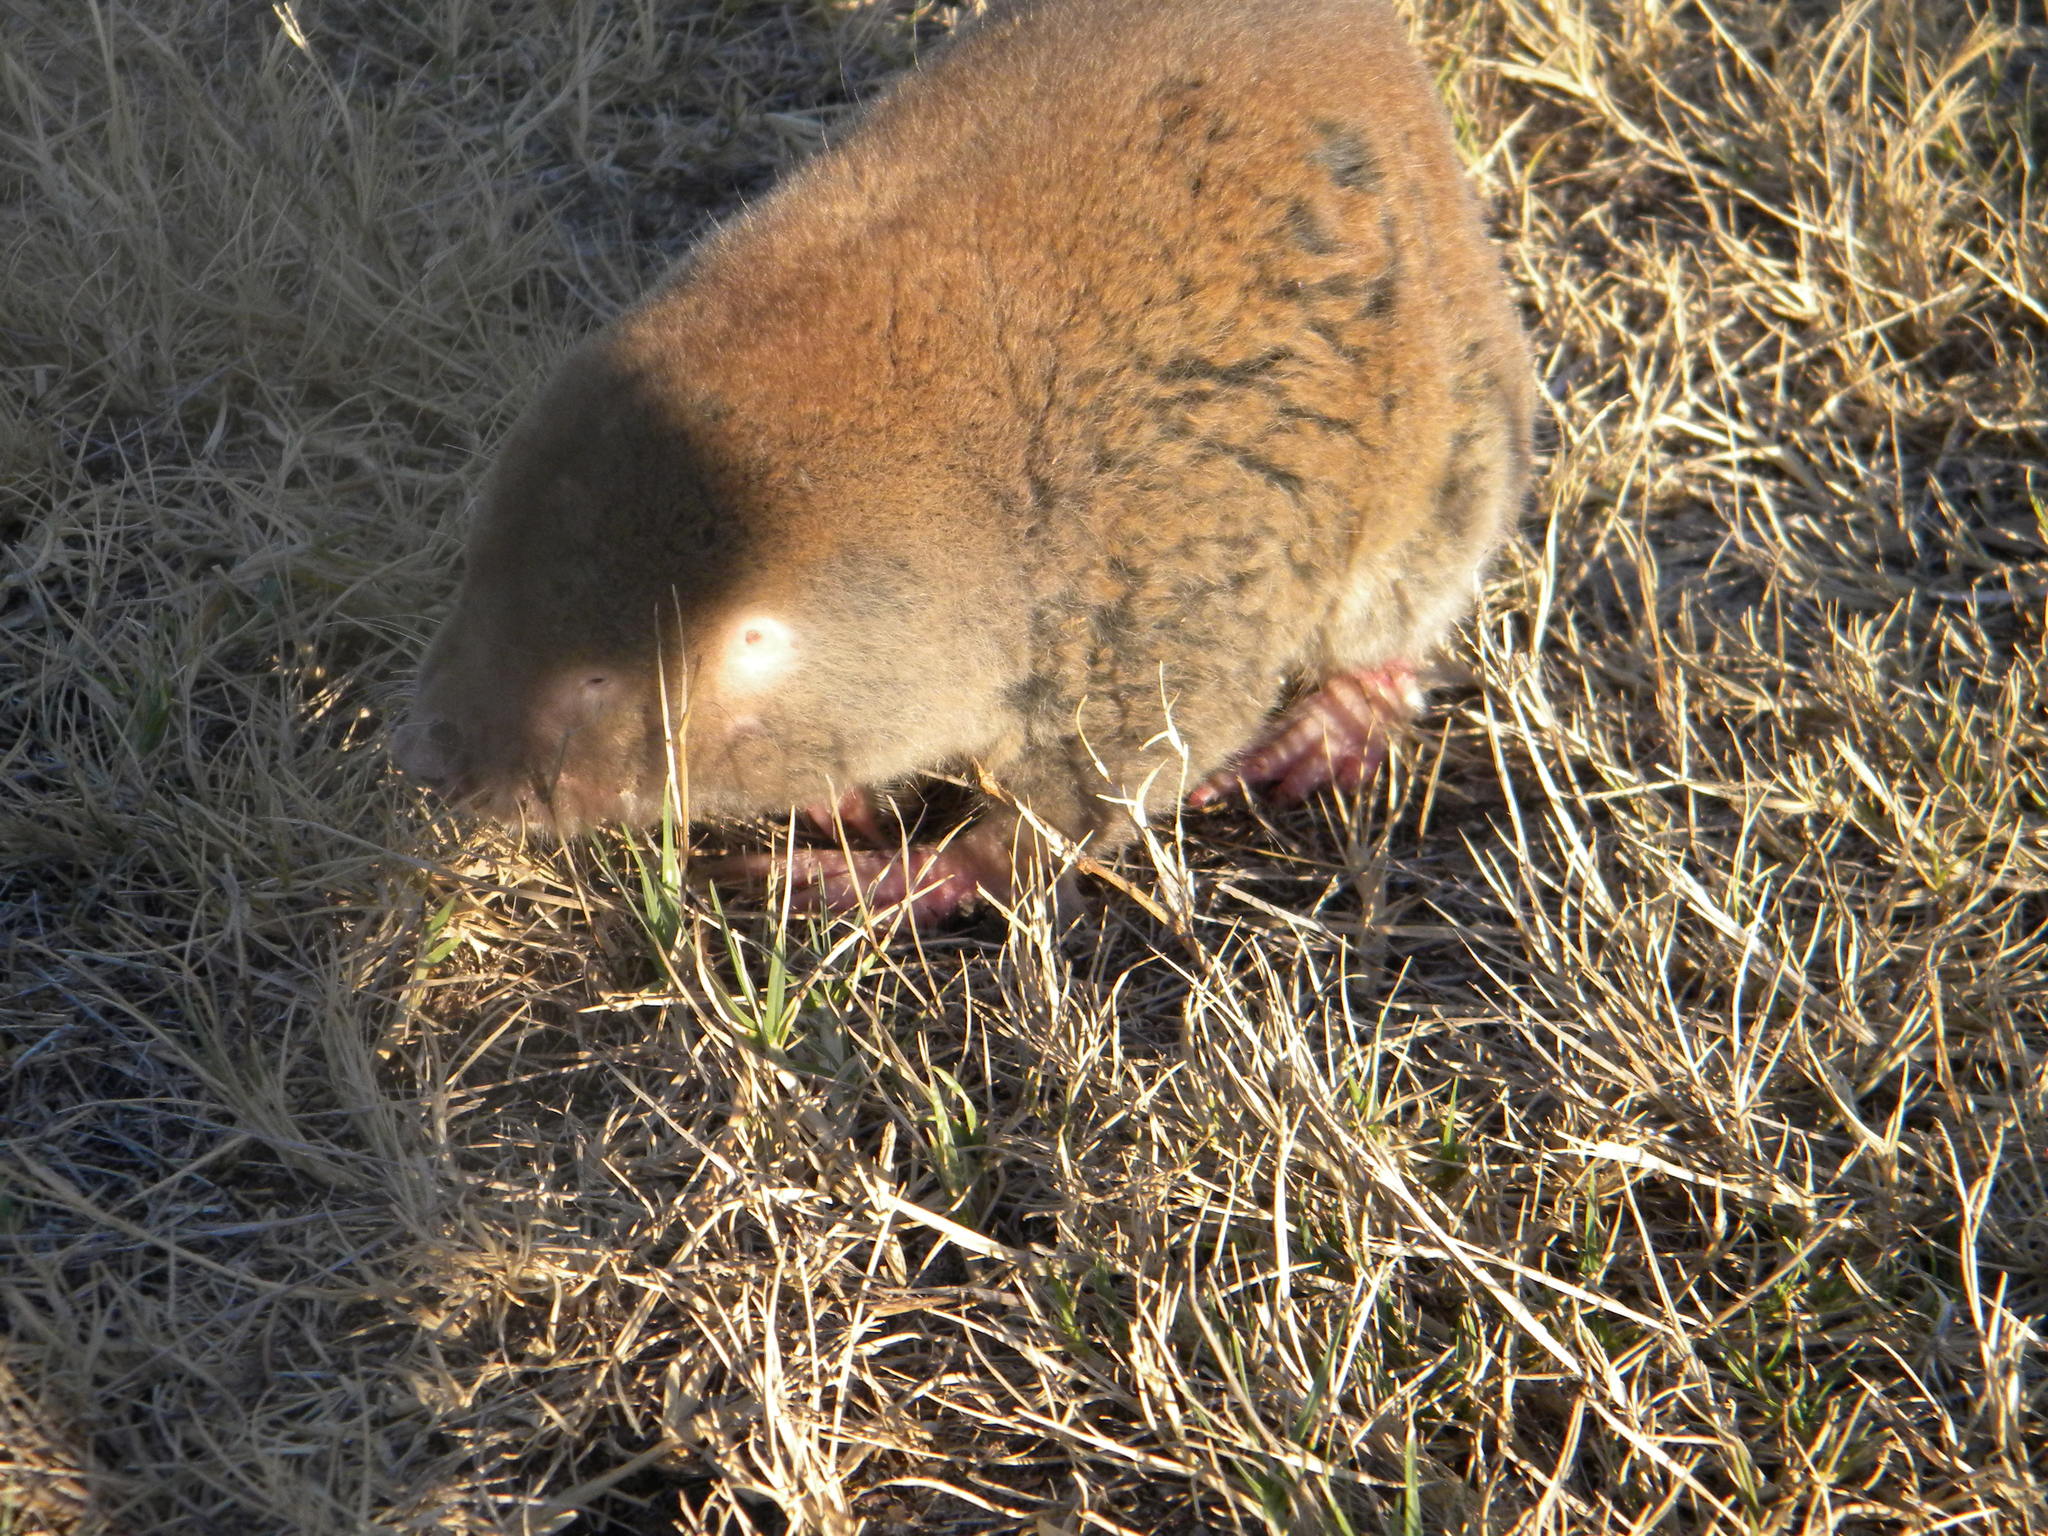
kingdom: Animalia
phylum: Chordata
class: Mammalia
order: Rodentia
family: Bathyergidae
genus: Bathyergus
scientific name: Bathyergus suillus
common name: Cape dune mole rat
